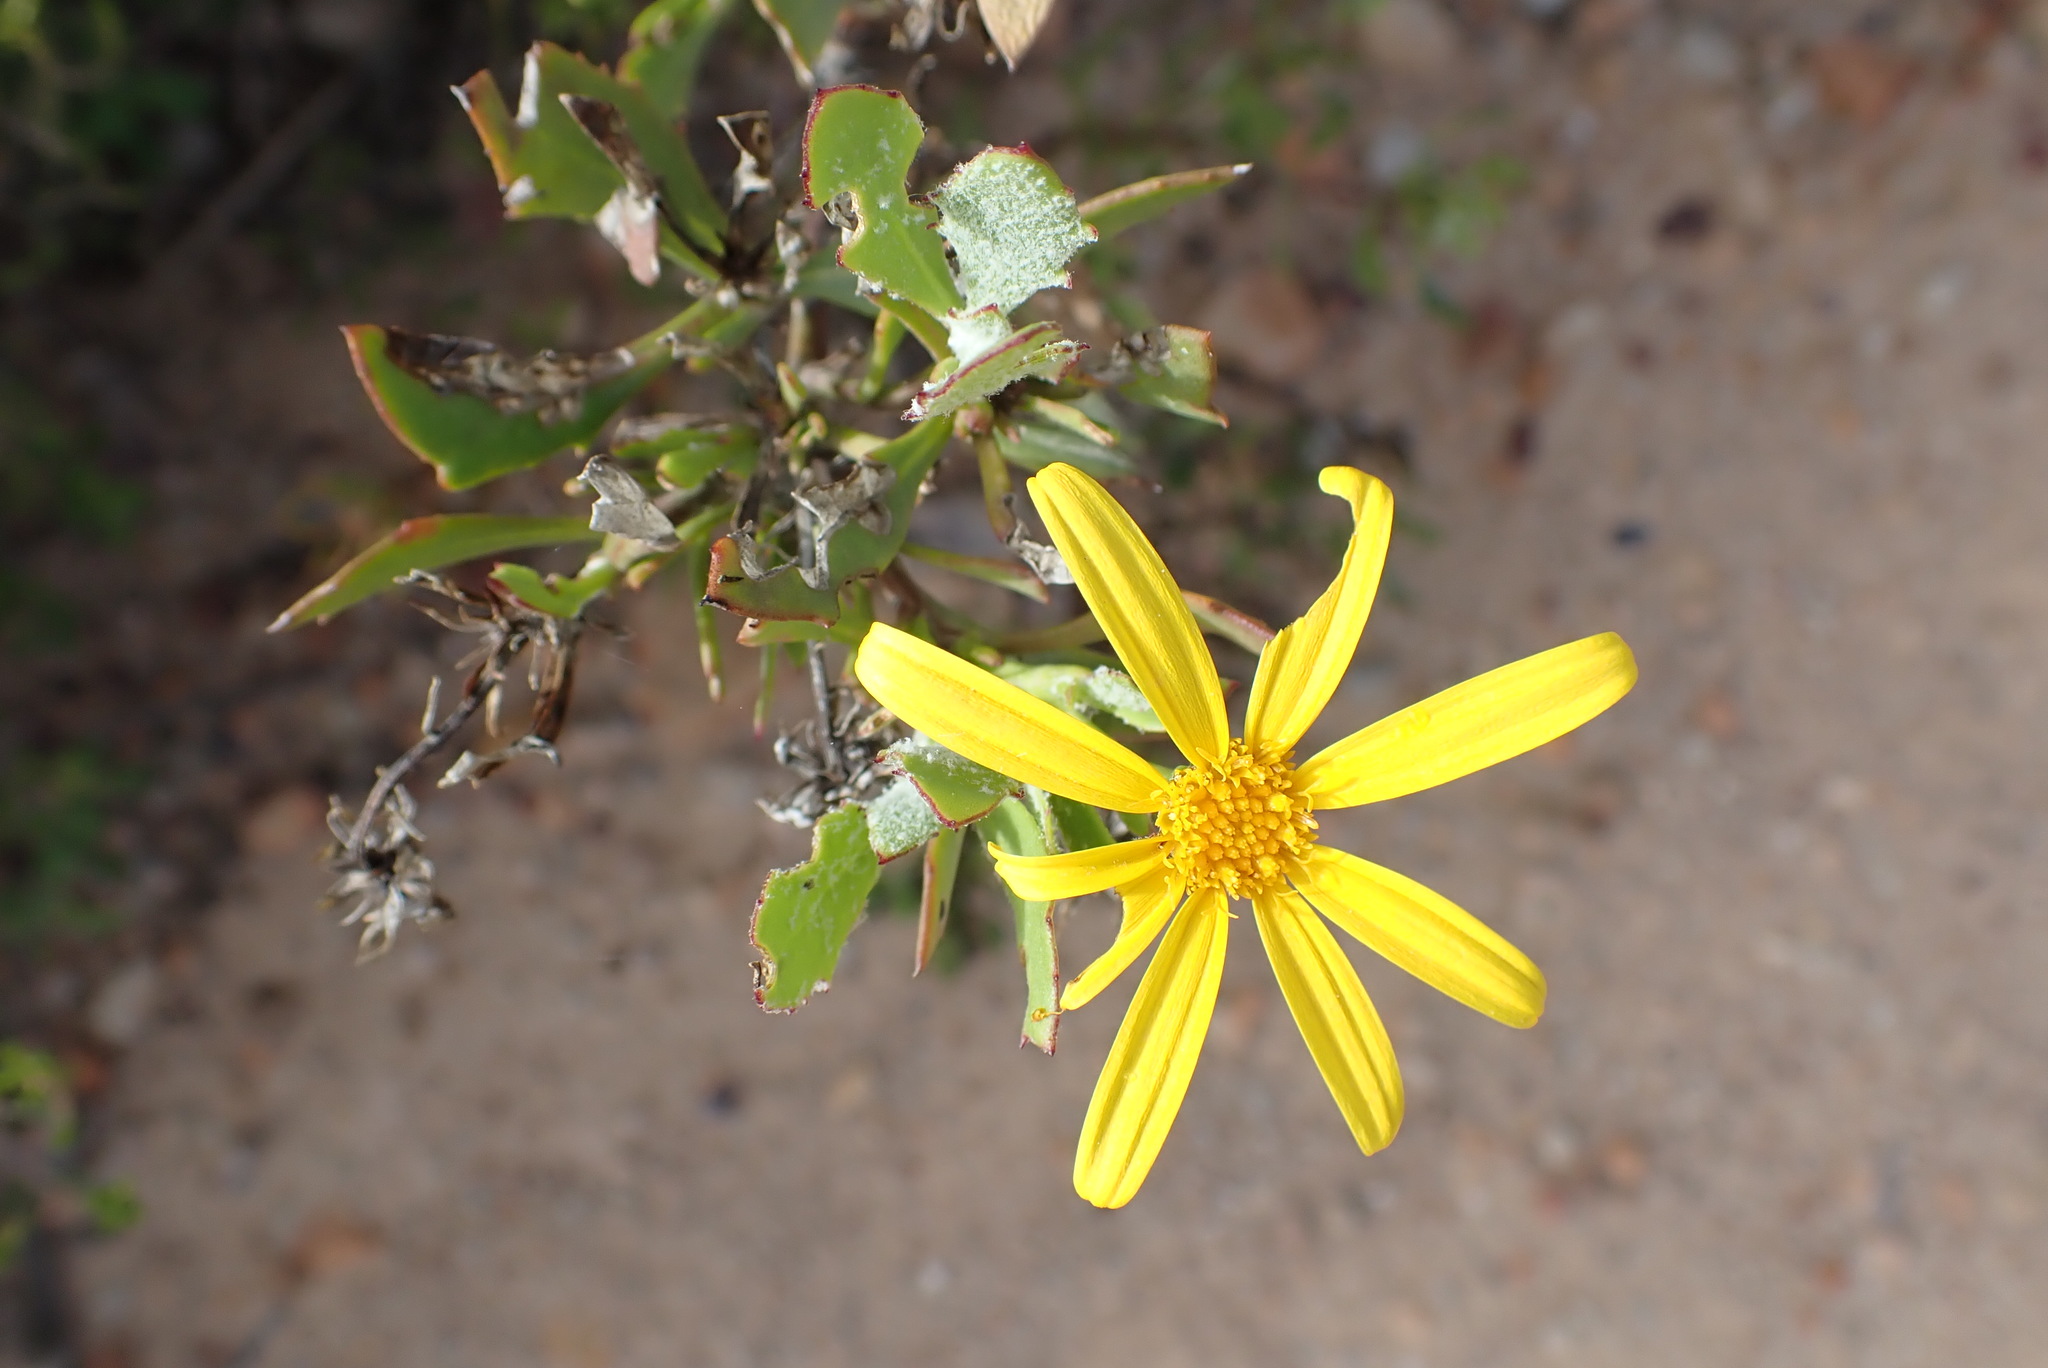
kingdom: Plantae
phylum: Tracheophyta
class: Magnoliopsida
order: Asterales
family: Asteraceae
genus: Osteospermum
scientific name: Osteospermum moniliferum
